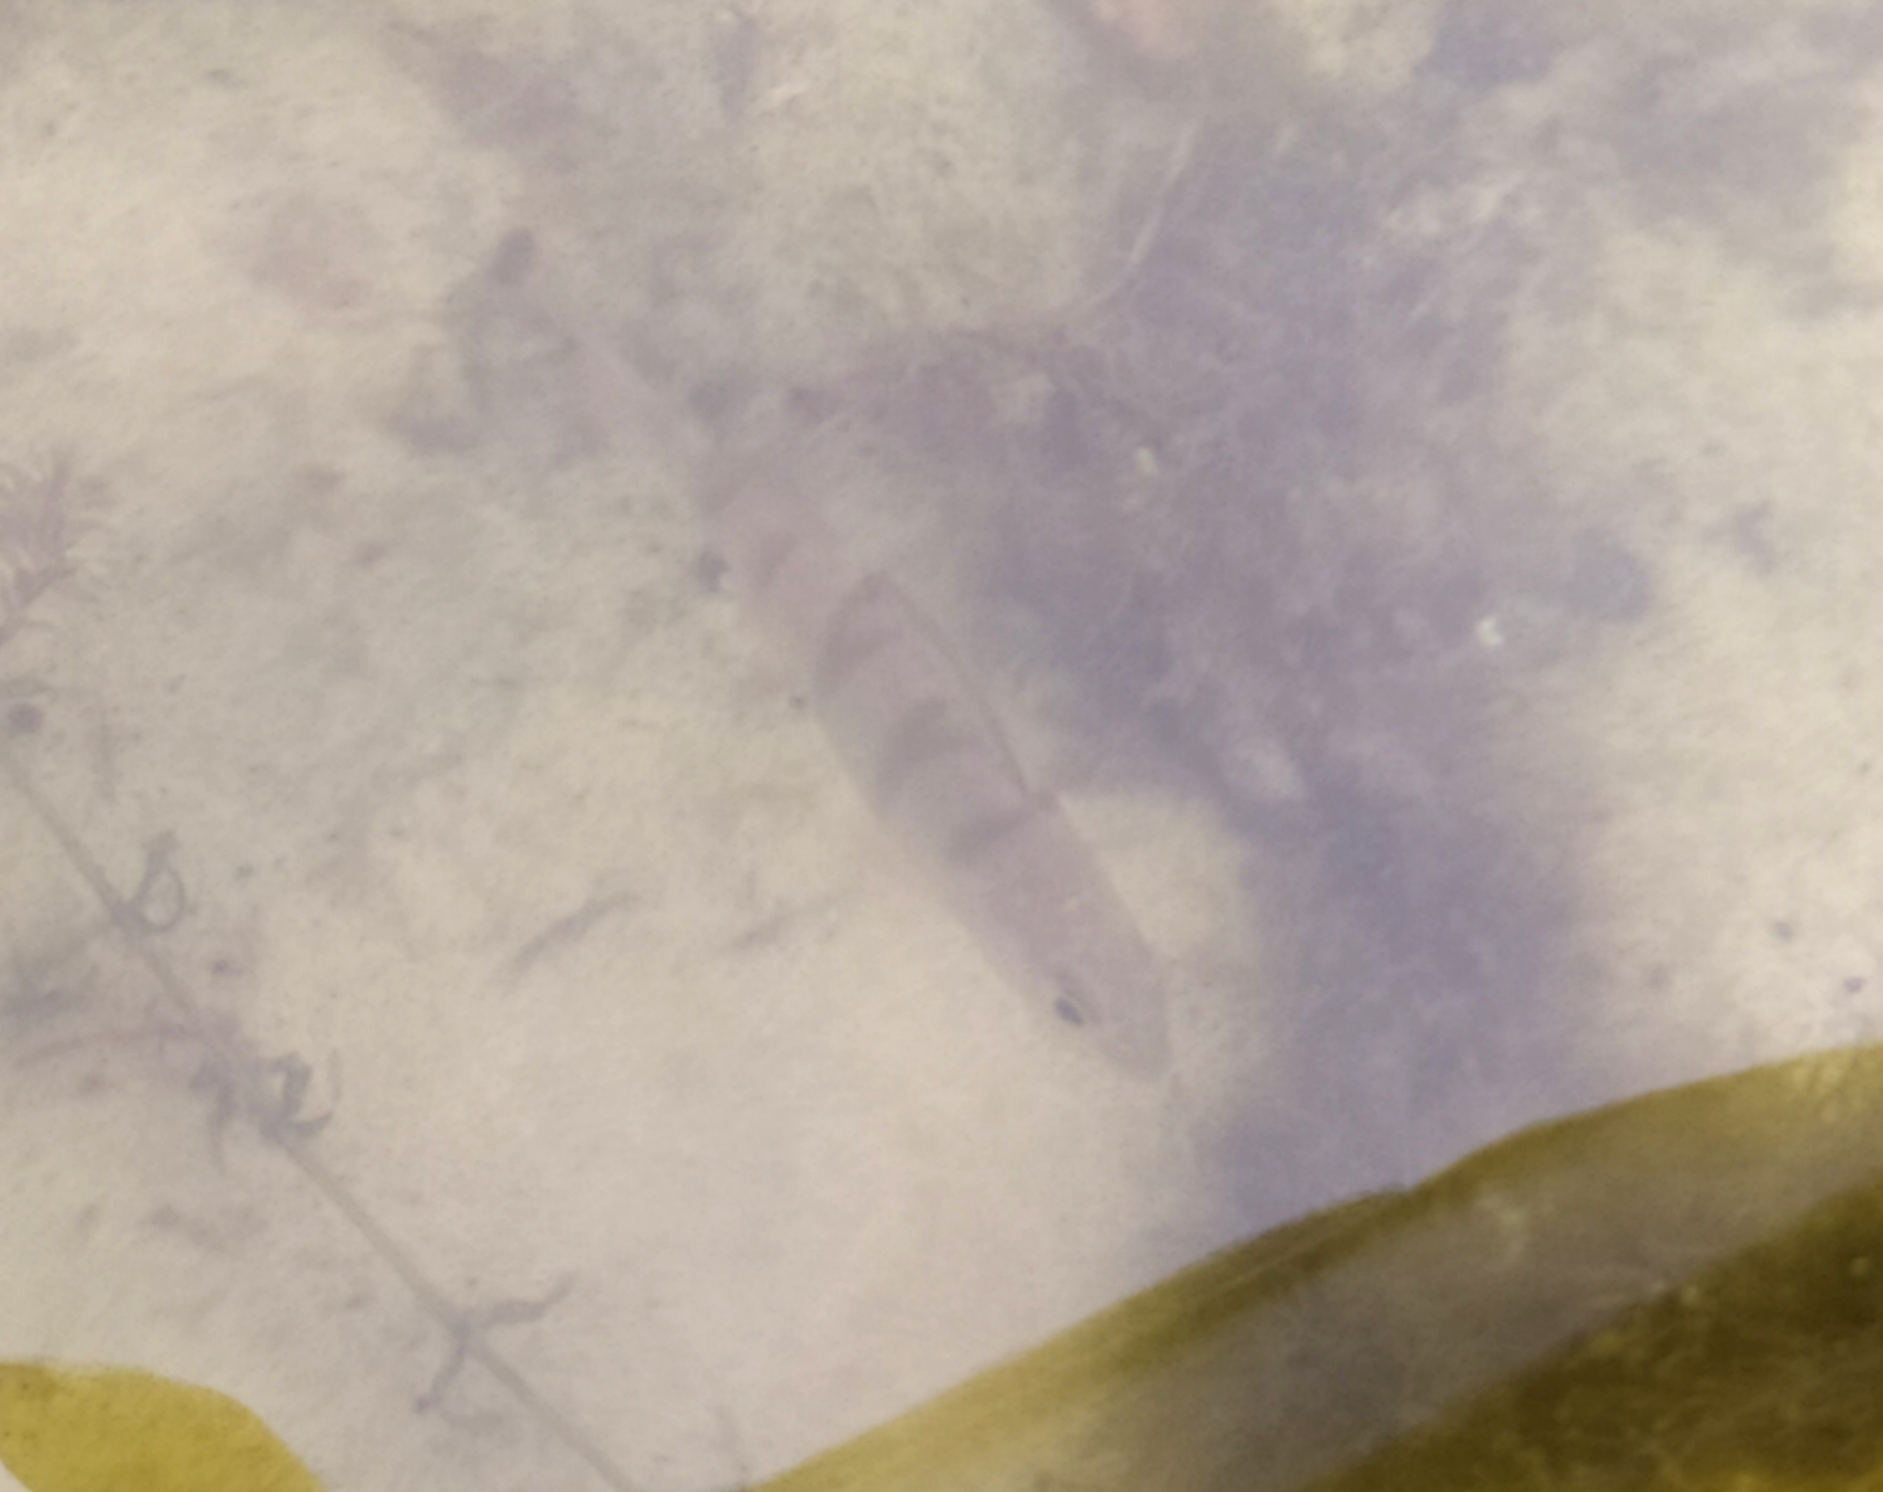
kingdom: Animalia
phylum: Chordata
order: Perciformes
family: Percidae
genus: Perca
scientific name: Perca fluviatilis
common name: Perch
